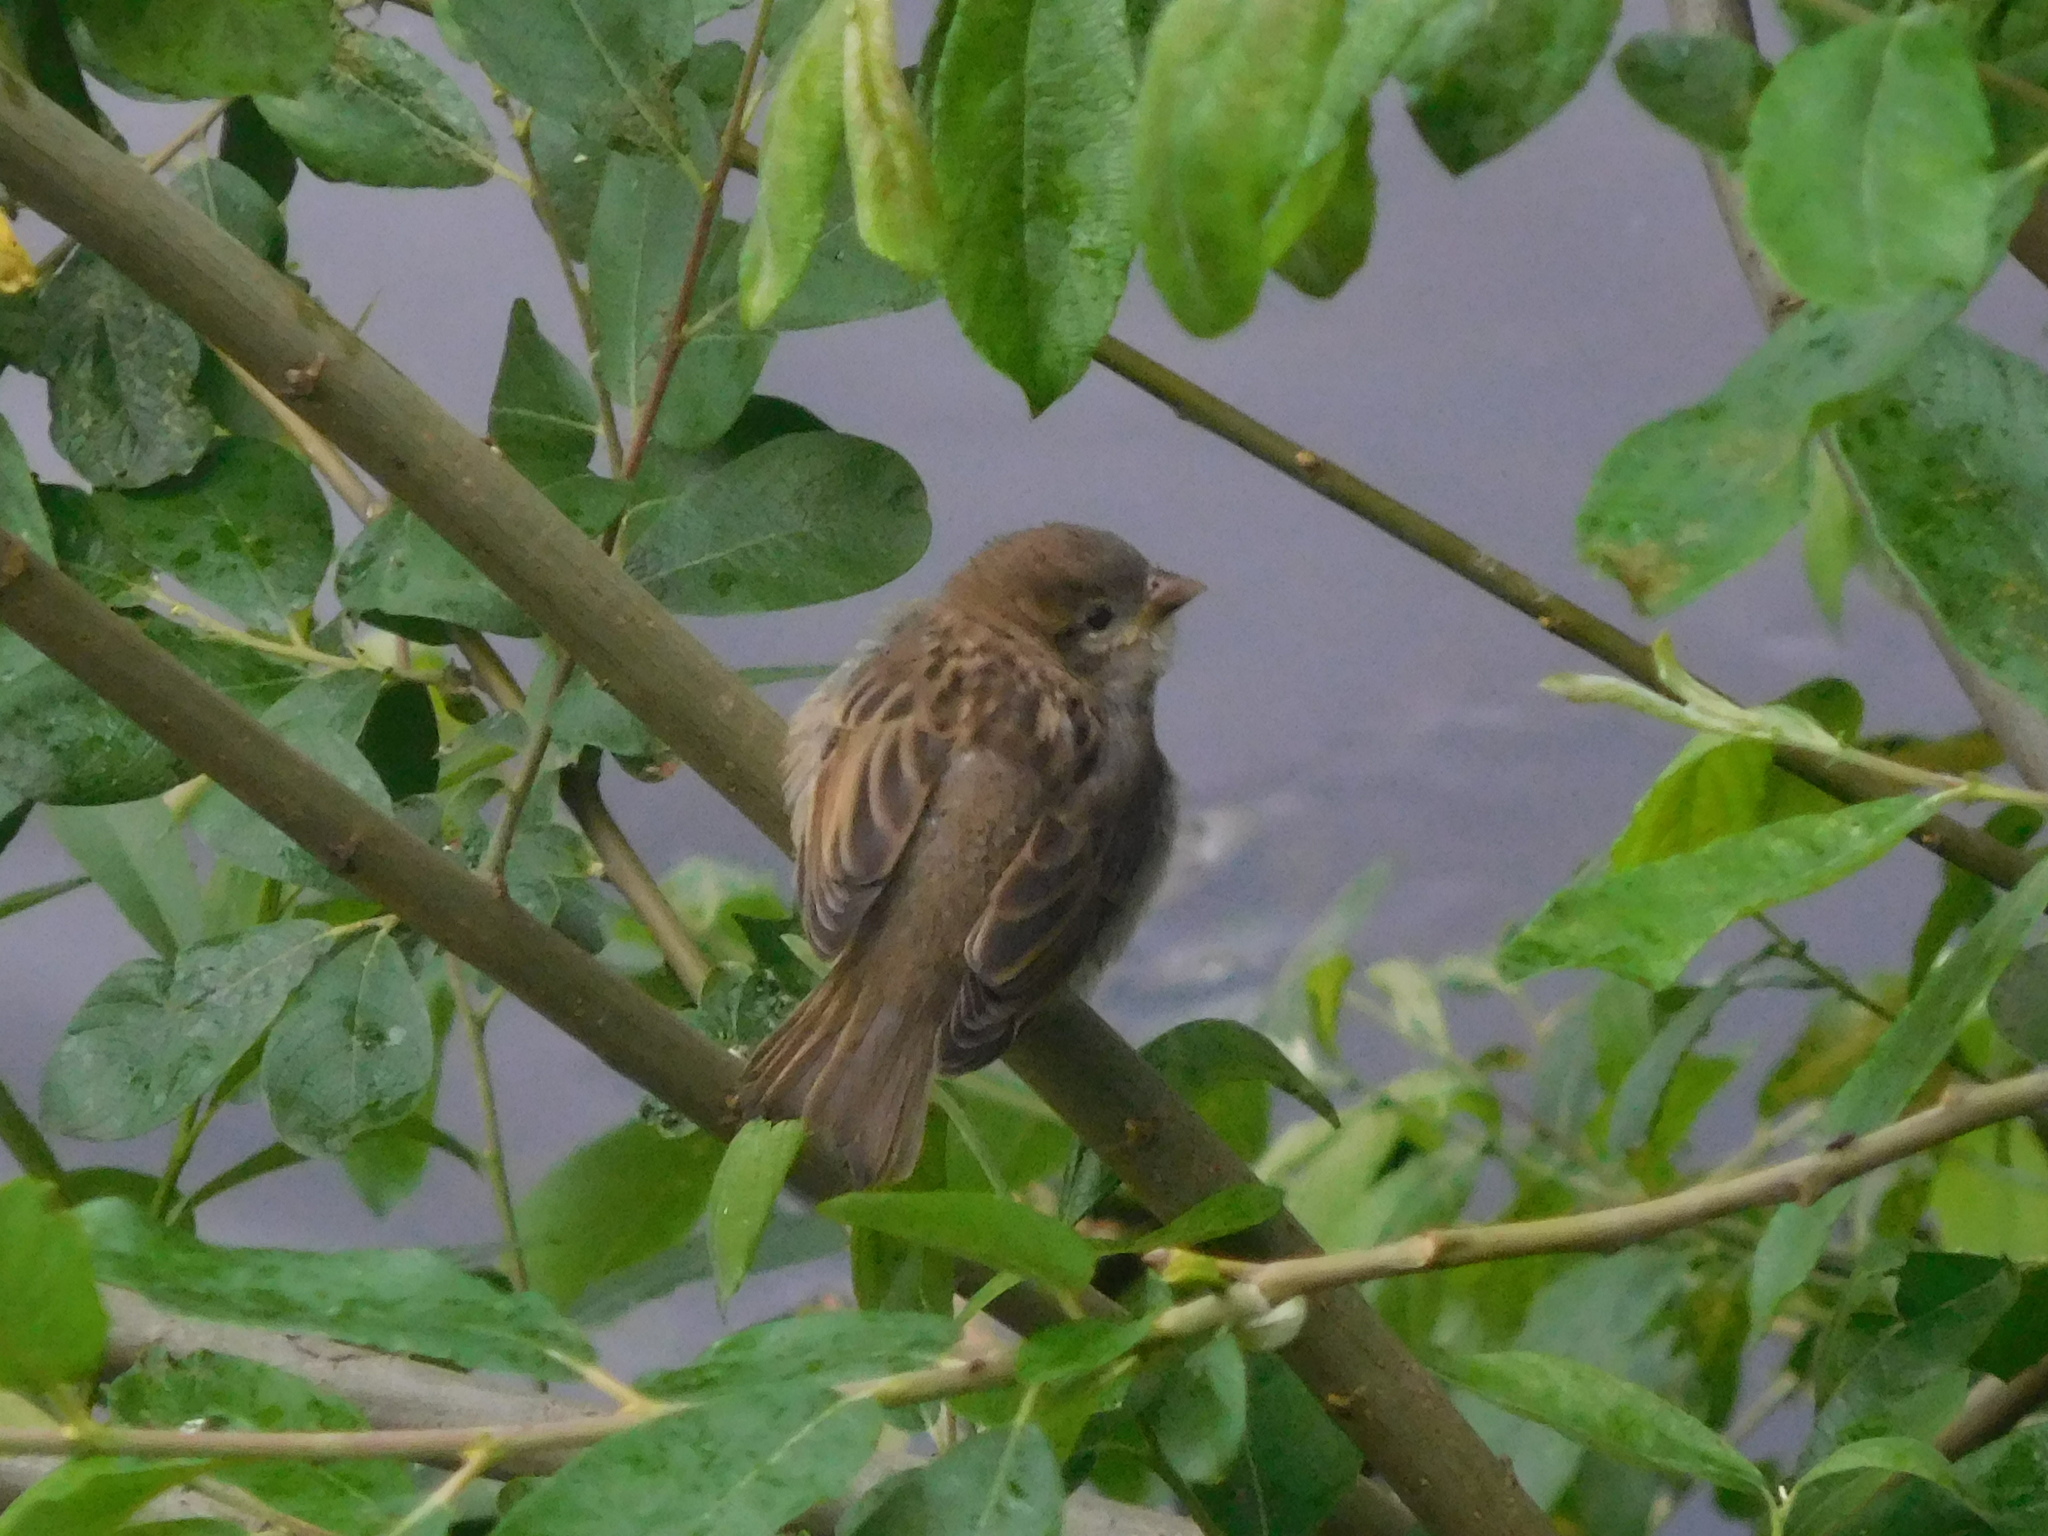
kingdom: Animalia
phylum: Chordata
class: Aves
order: Passeriformes
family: Passeridae
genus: Passer
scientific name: Passer domesticus
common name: House sparrow
